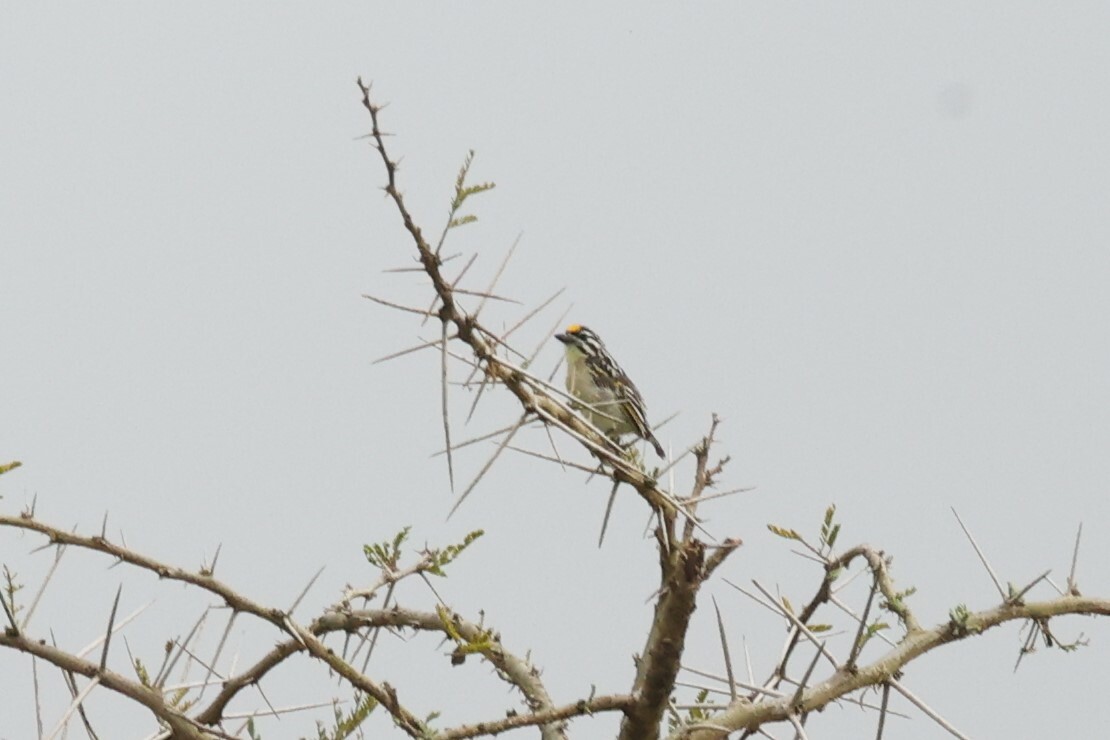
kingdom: Animalia
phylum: Chordata
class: Aves
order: Piciformes
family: Lybiidae
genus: Pogoniulus
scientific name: Pogoniulus chrysoconus
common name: Yellow-fronted tinkerbird
